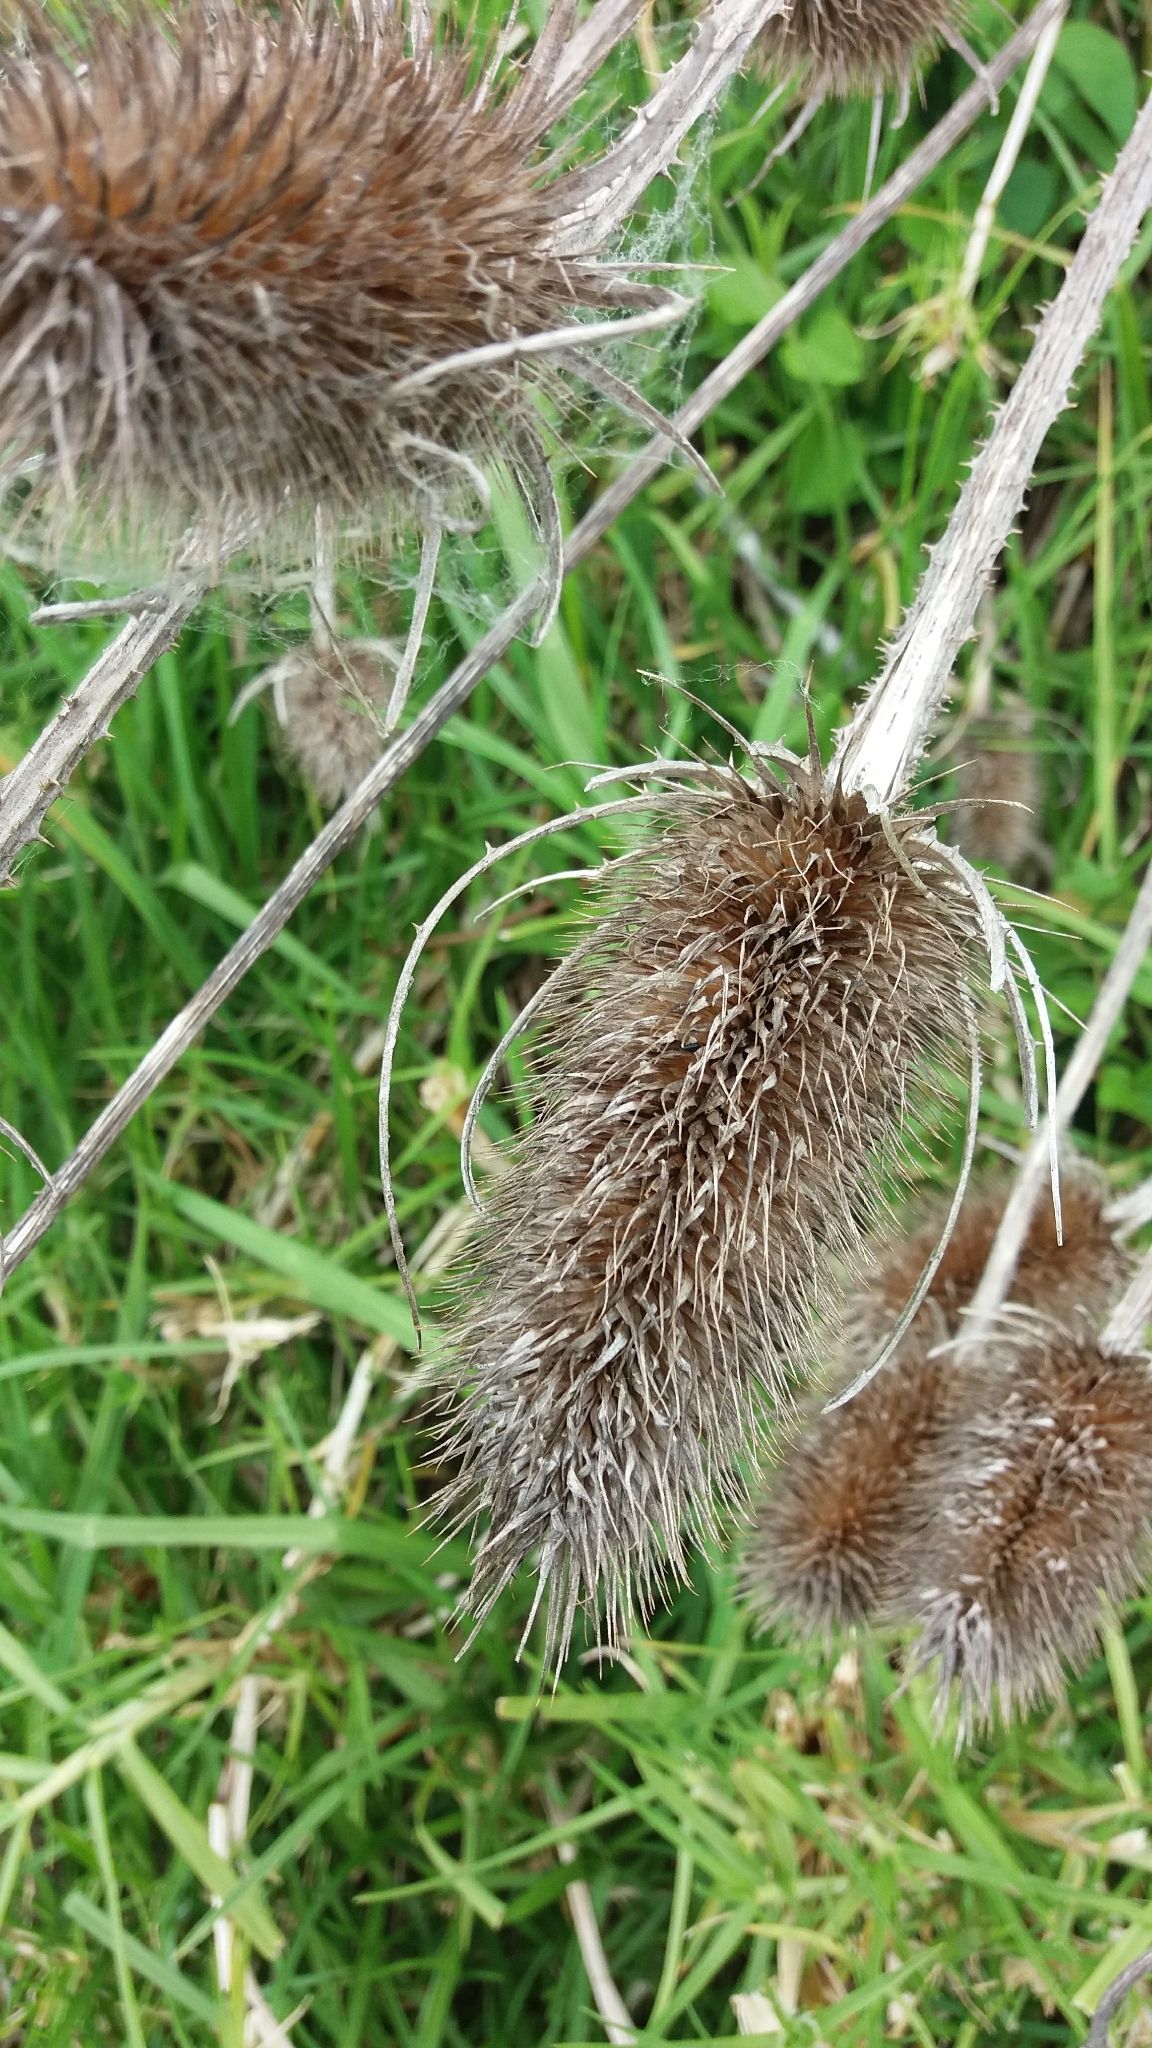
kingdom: Plantae
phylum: Tracheophyta
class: Magnoliopsida
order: Dipsacales
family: Caprifoliaceae
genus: Dipsacus
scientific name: Dipsacus fullonum
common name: Teasel
